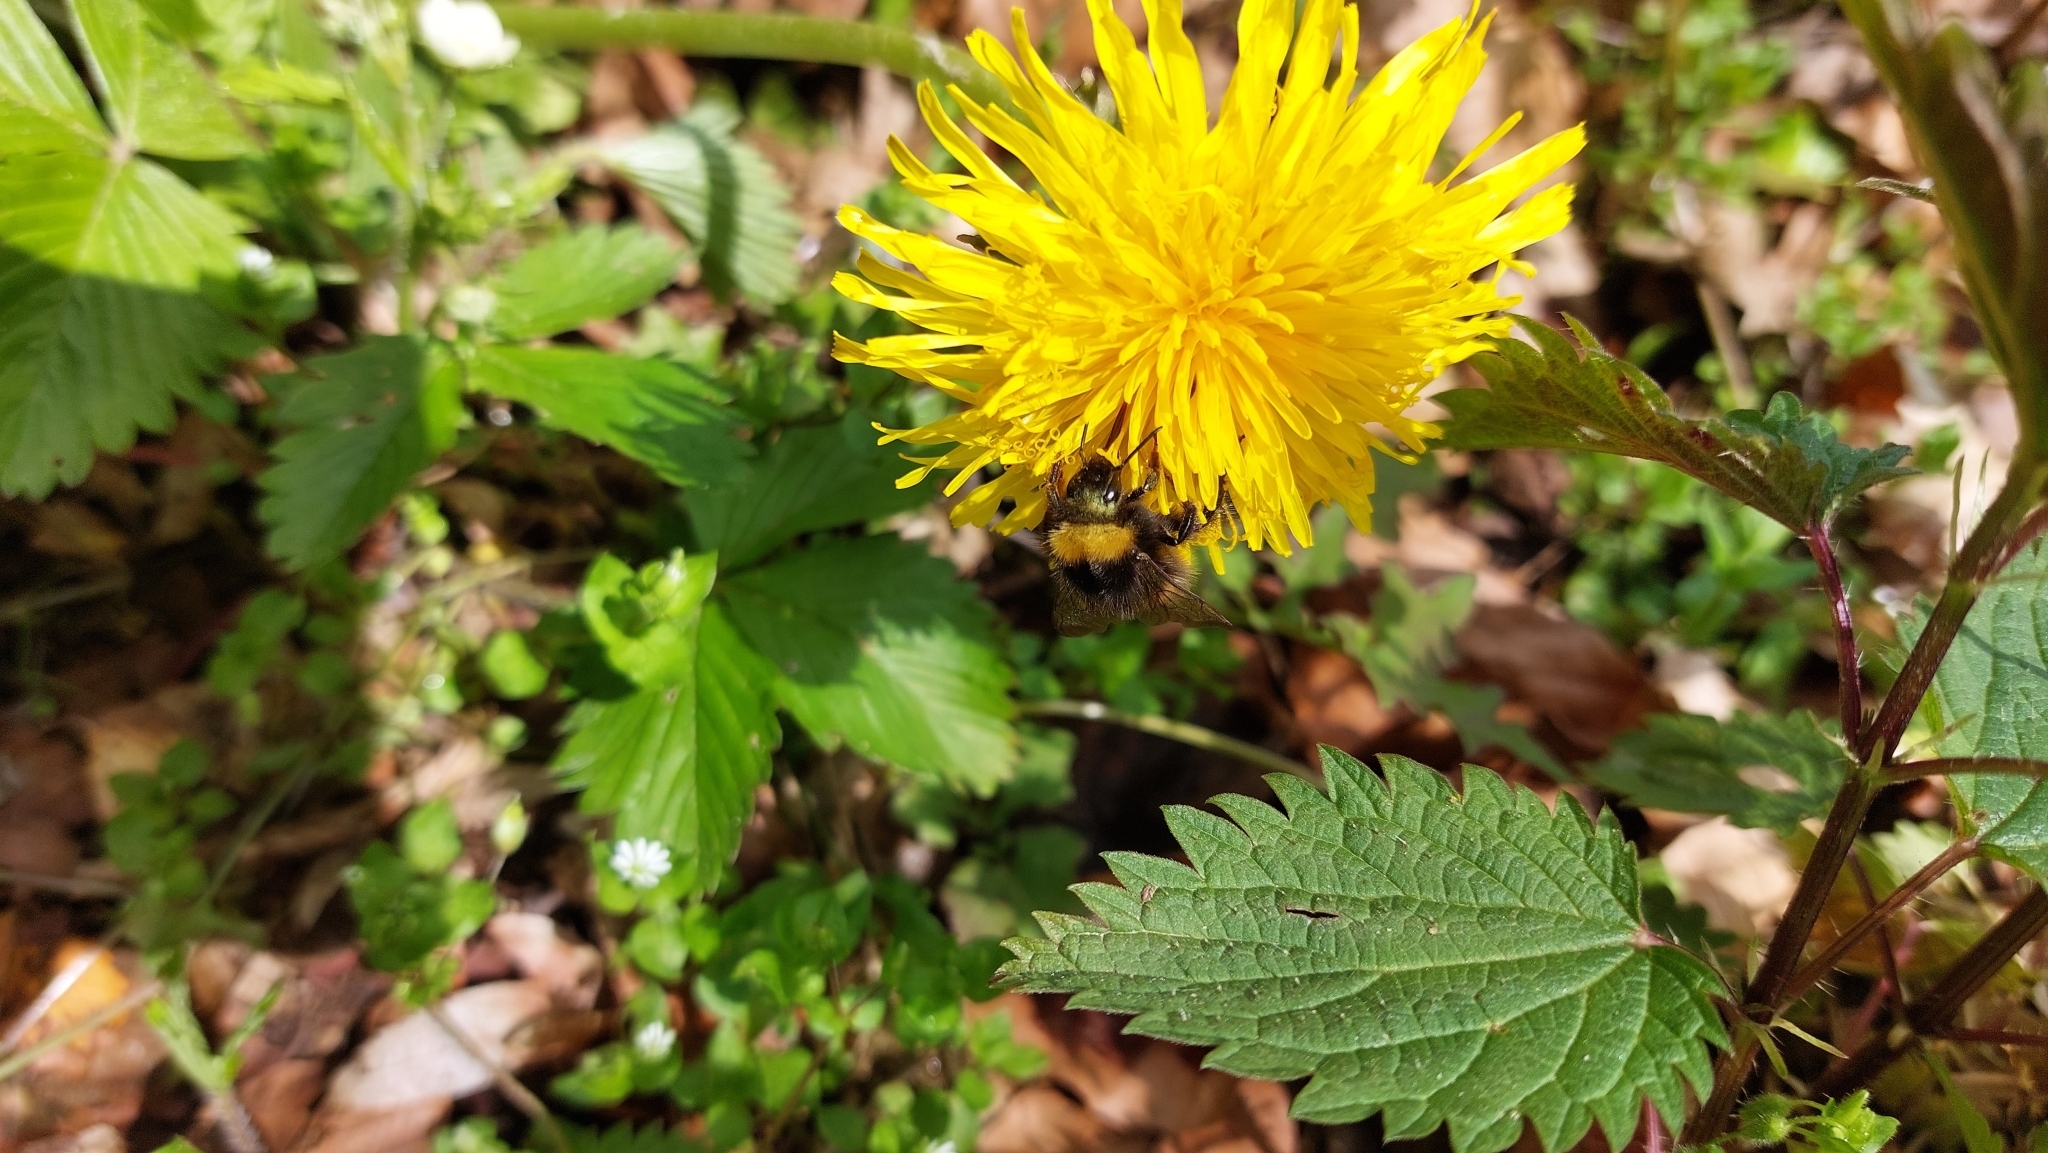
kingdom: Plantae
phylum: Tracheophyta
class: Magnoliopsida
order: Asterales
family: Asteraceae
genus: Taraxacum
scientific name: Taraxacum
